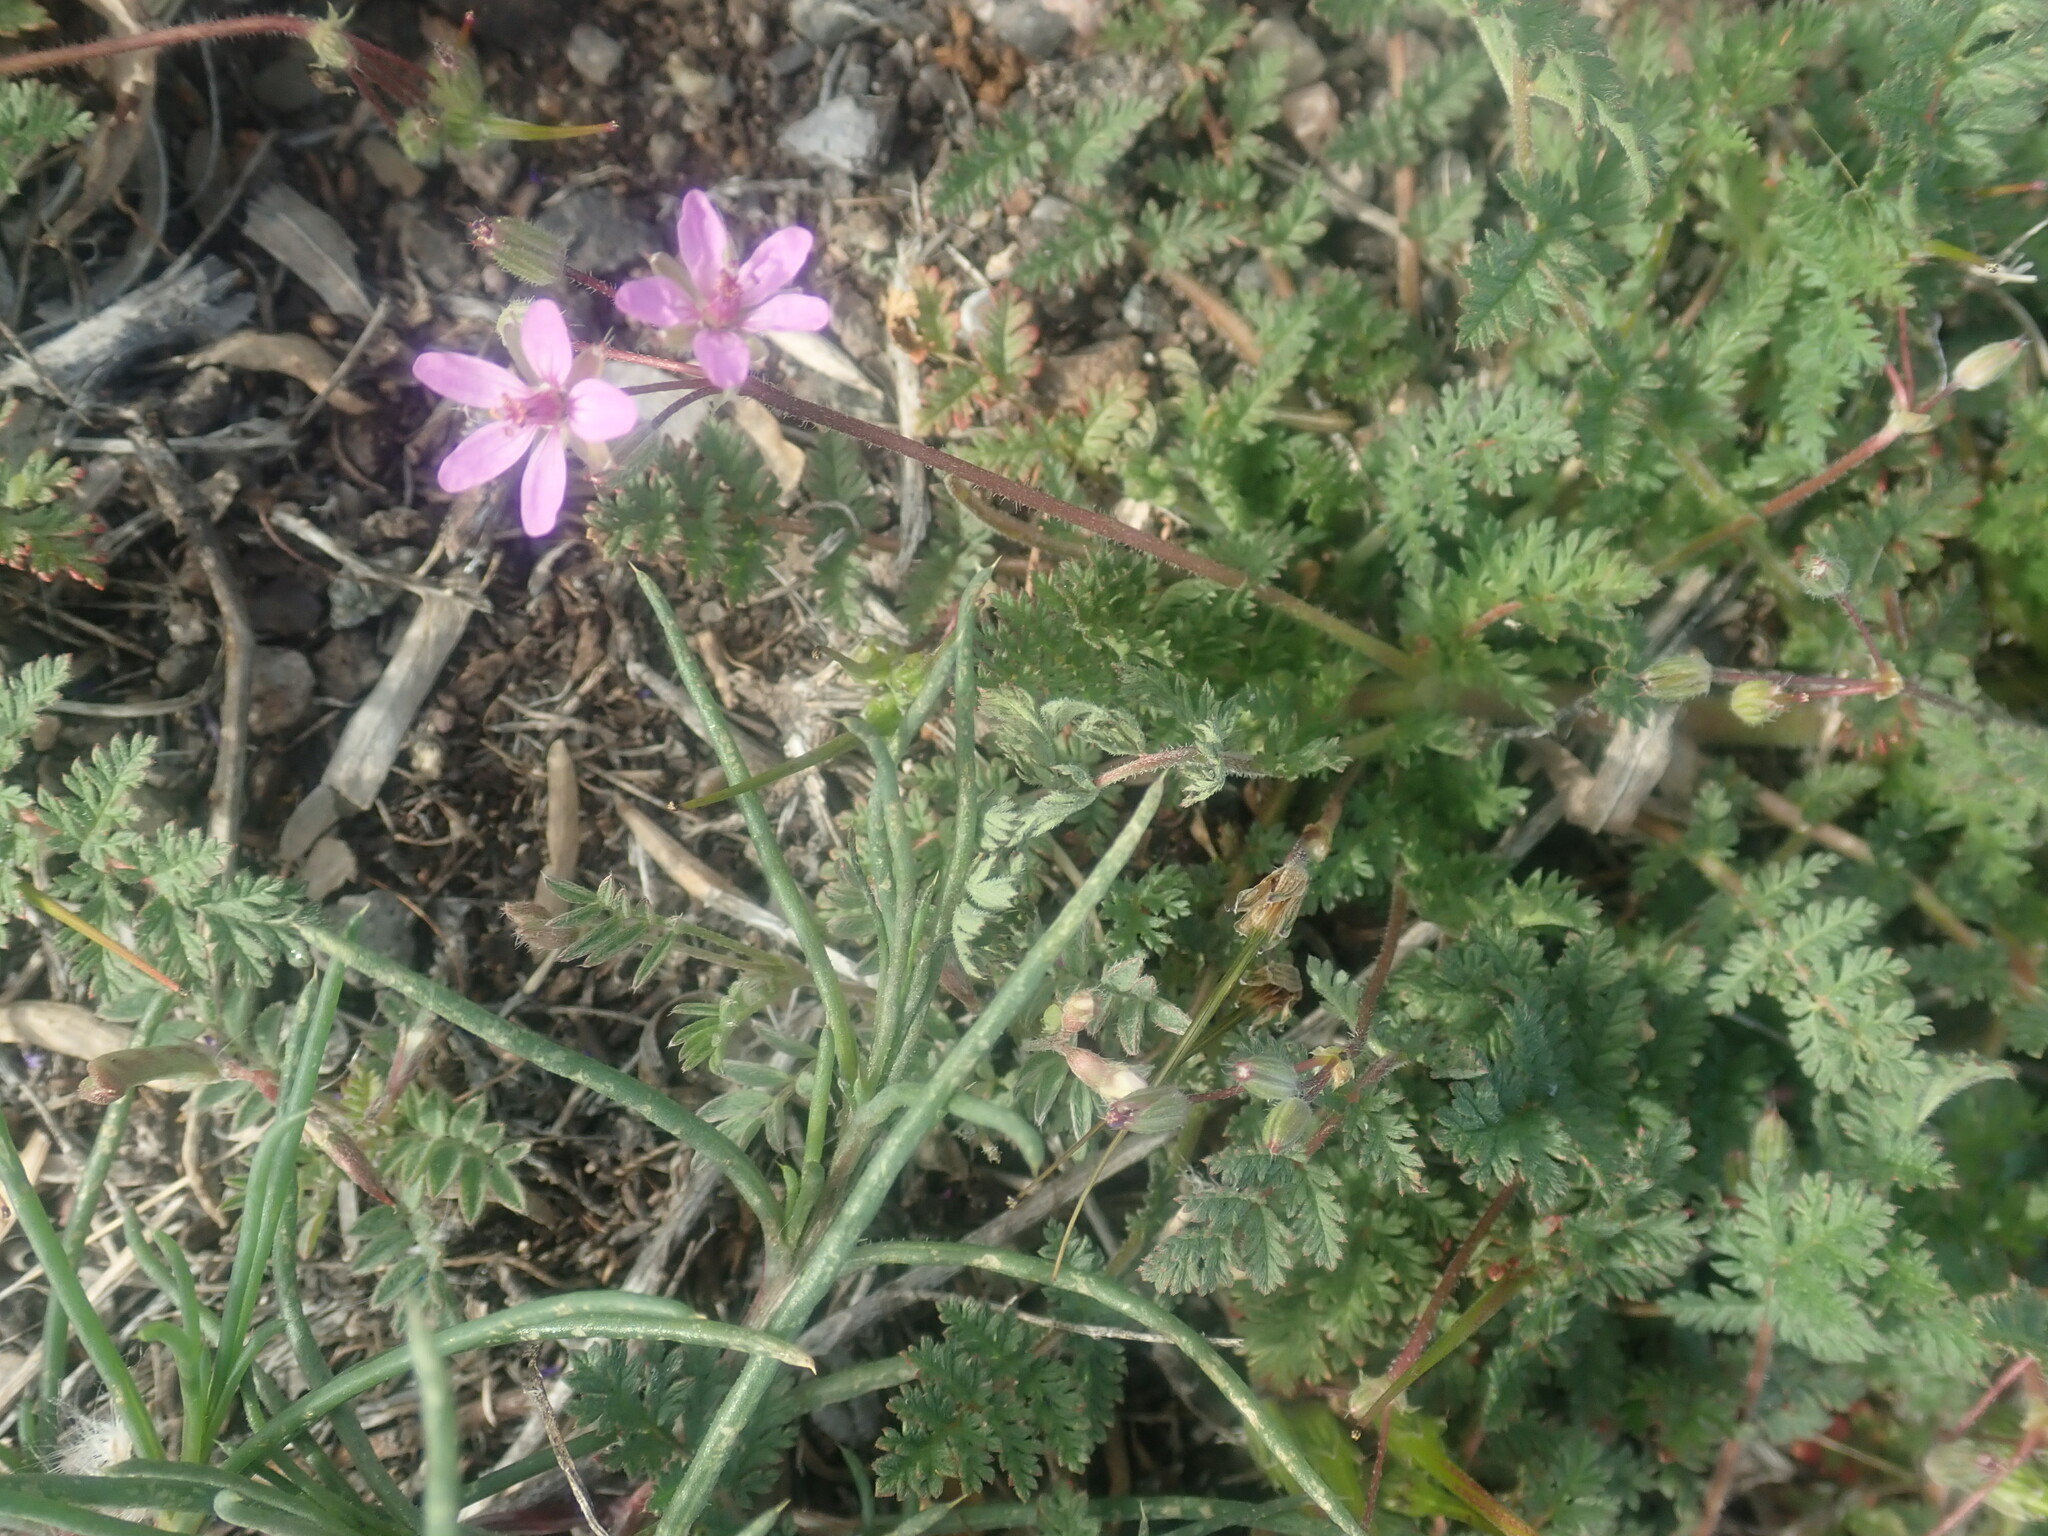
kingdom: Plantae
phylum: Tracheophyta
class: Magnoliopsida
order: Geraniales
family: Geraniaceae
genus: Erodium
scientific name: Erodium cicutarium
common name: Common stork's-bill
